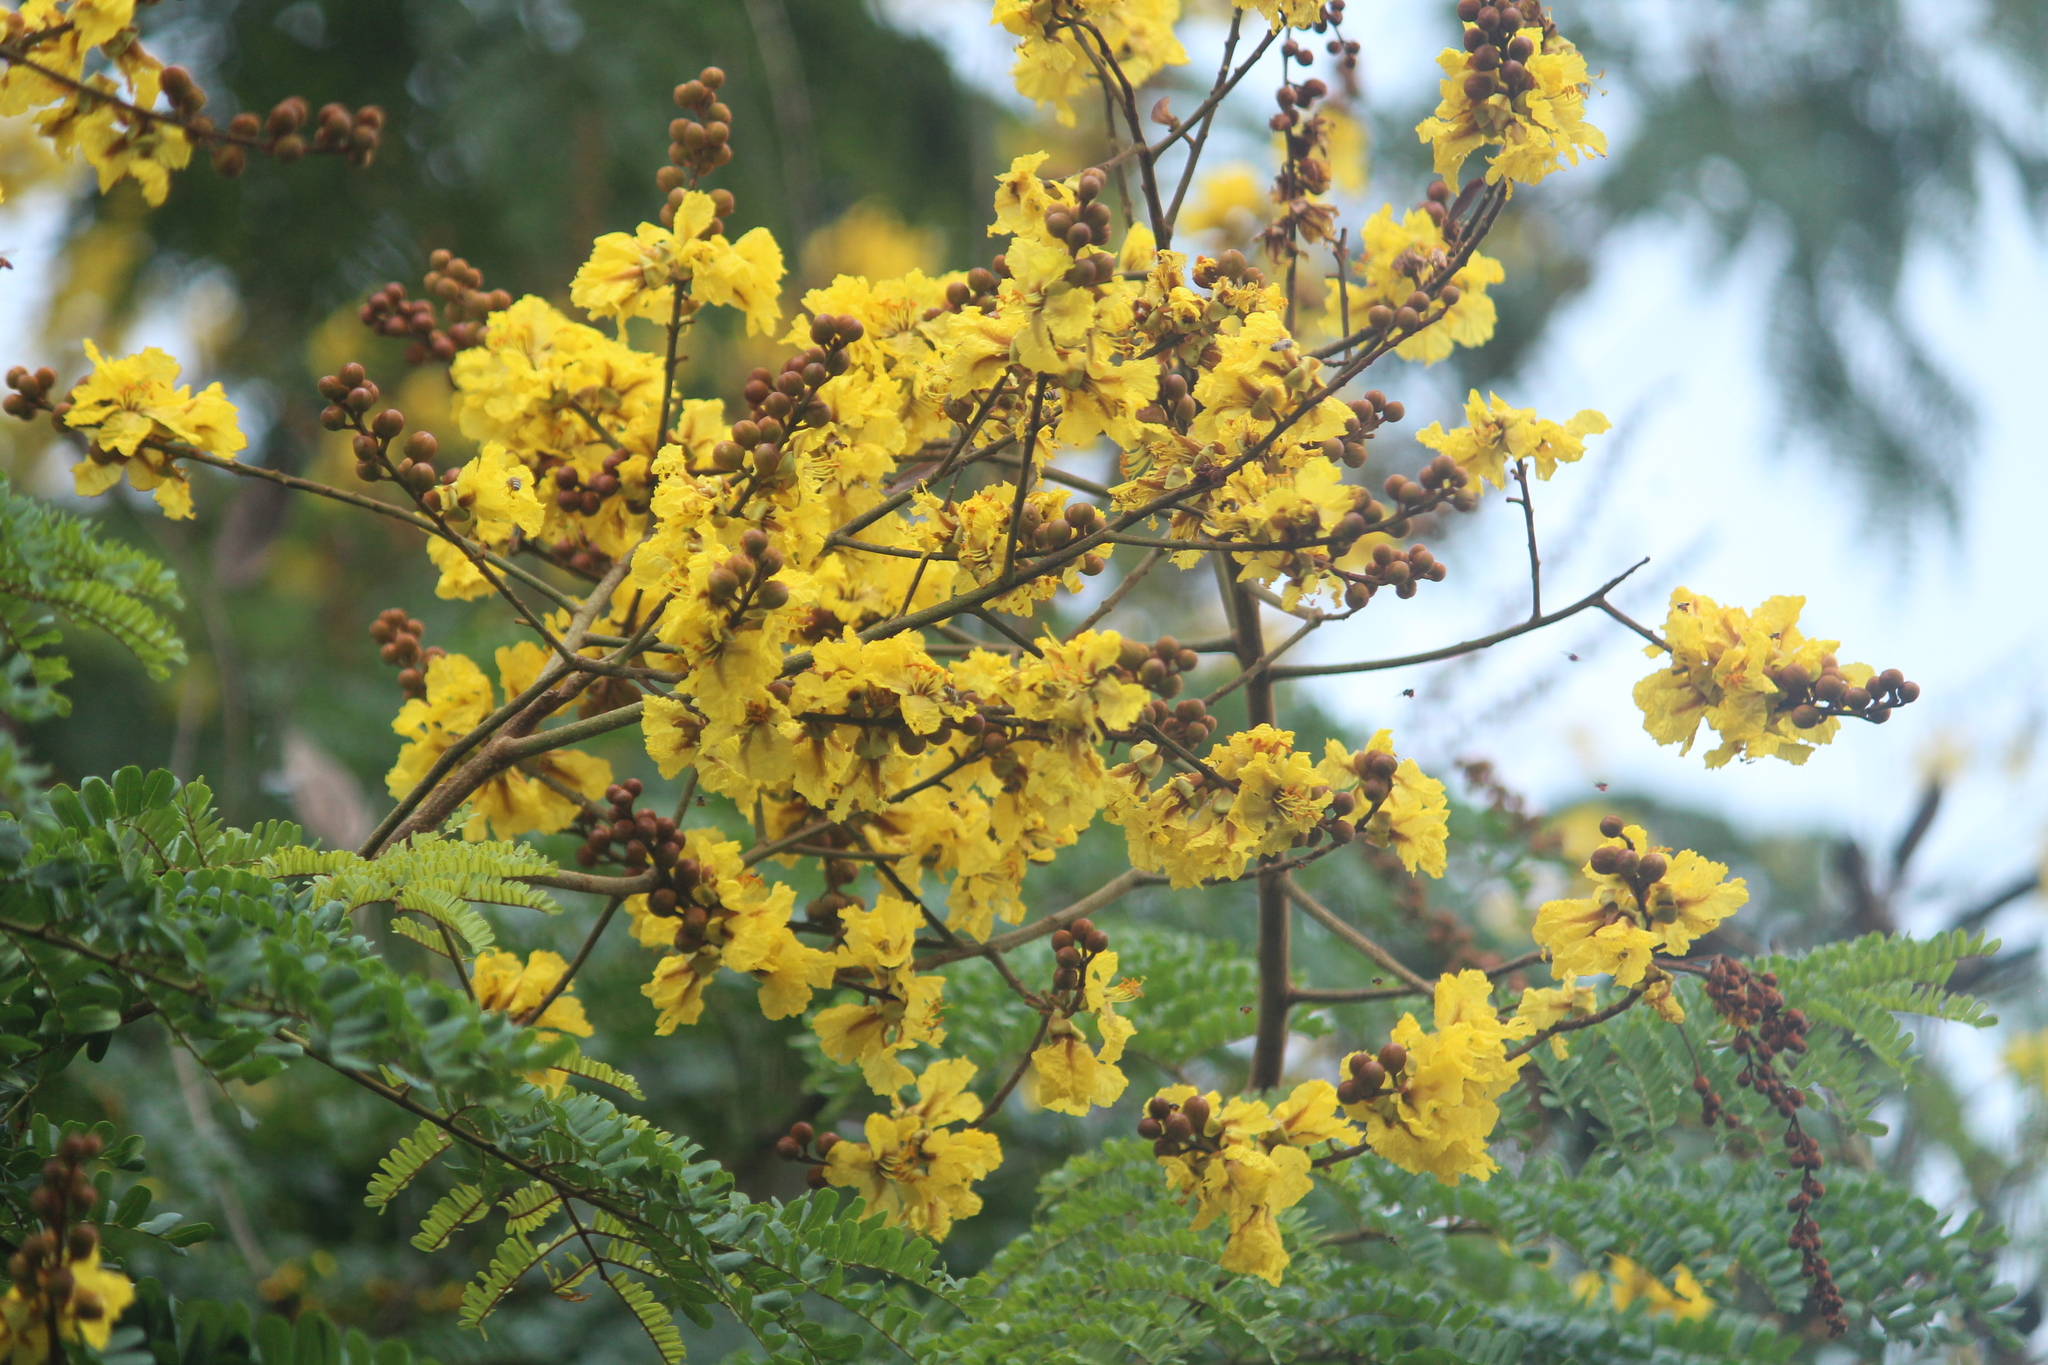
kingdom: Plantae
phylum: Tracheophyta
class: Magnoliopsida
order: Fabales
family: Fabaceae
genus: Peltophorum
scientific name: Peltophorum pterocarpum
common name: Yellow flame
